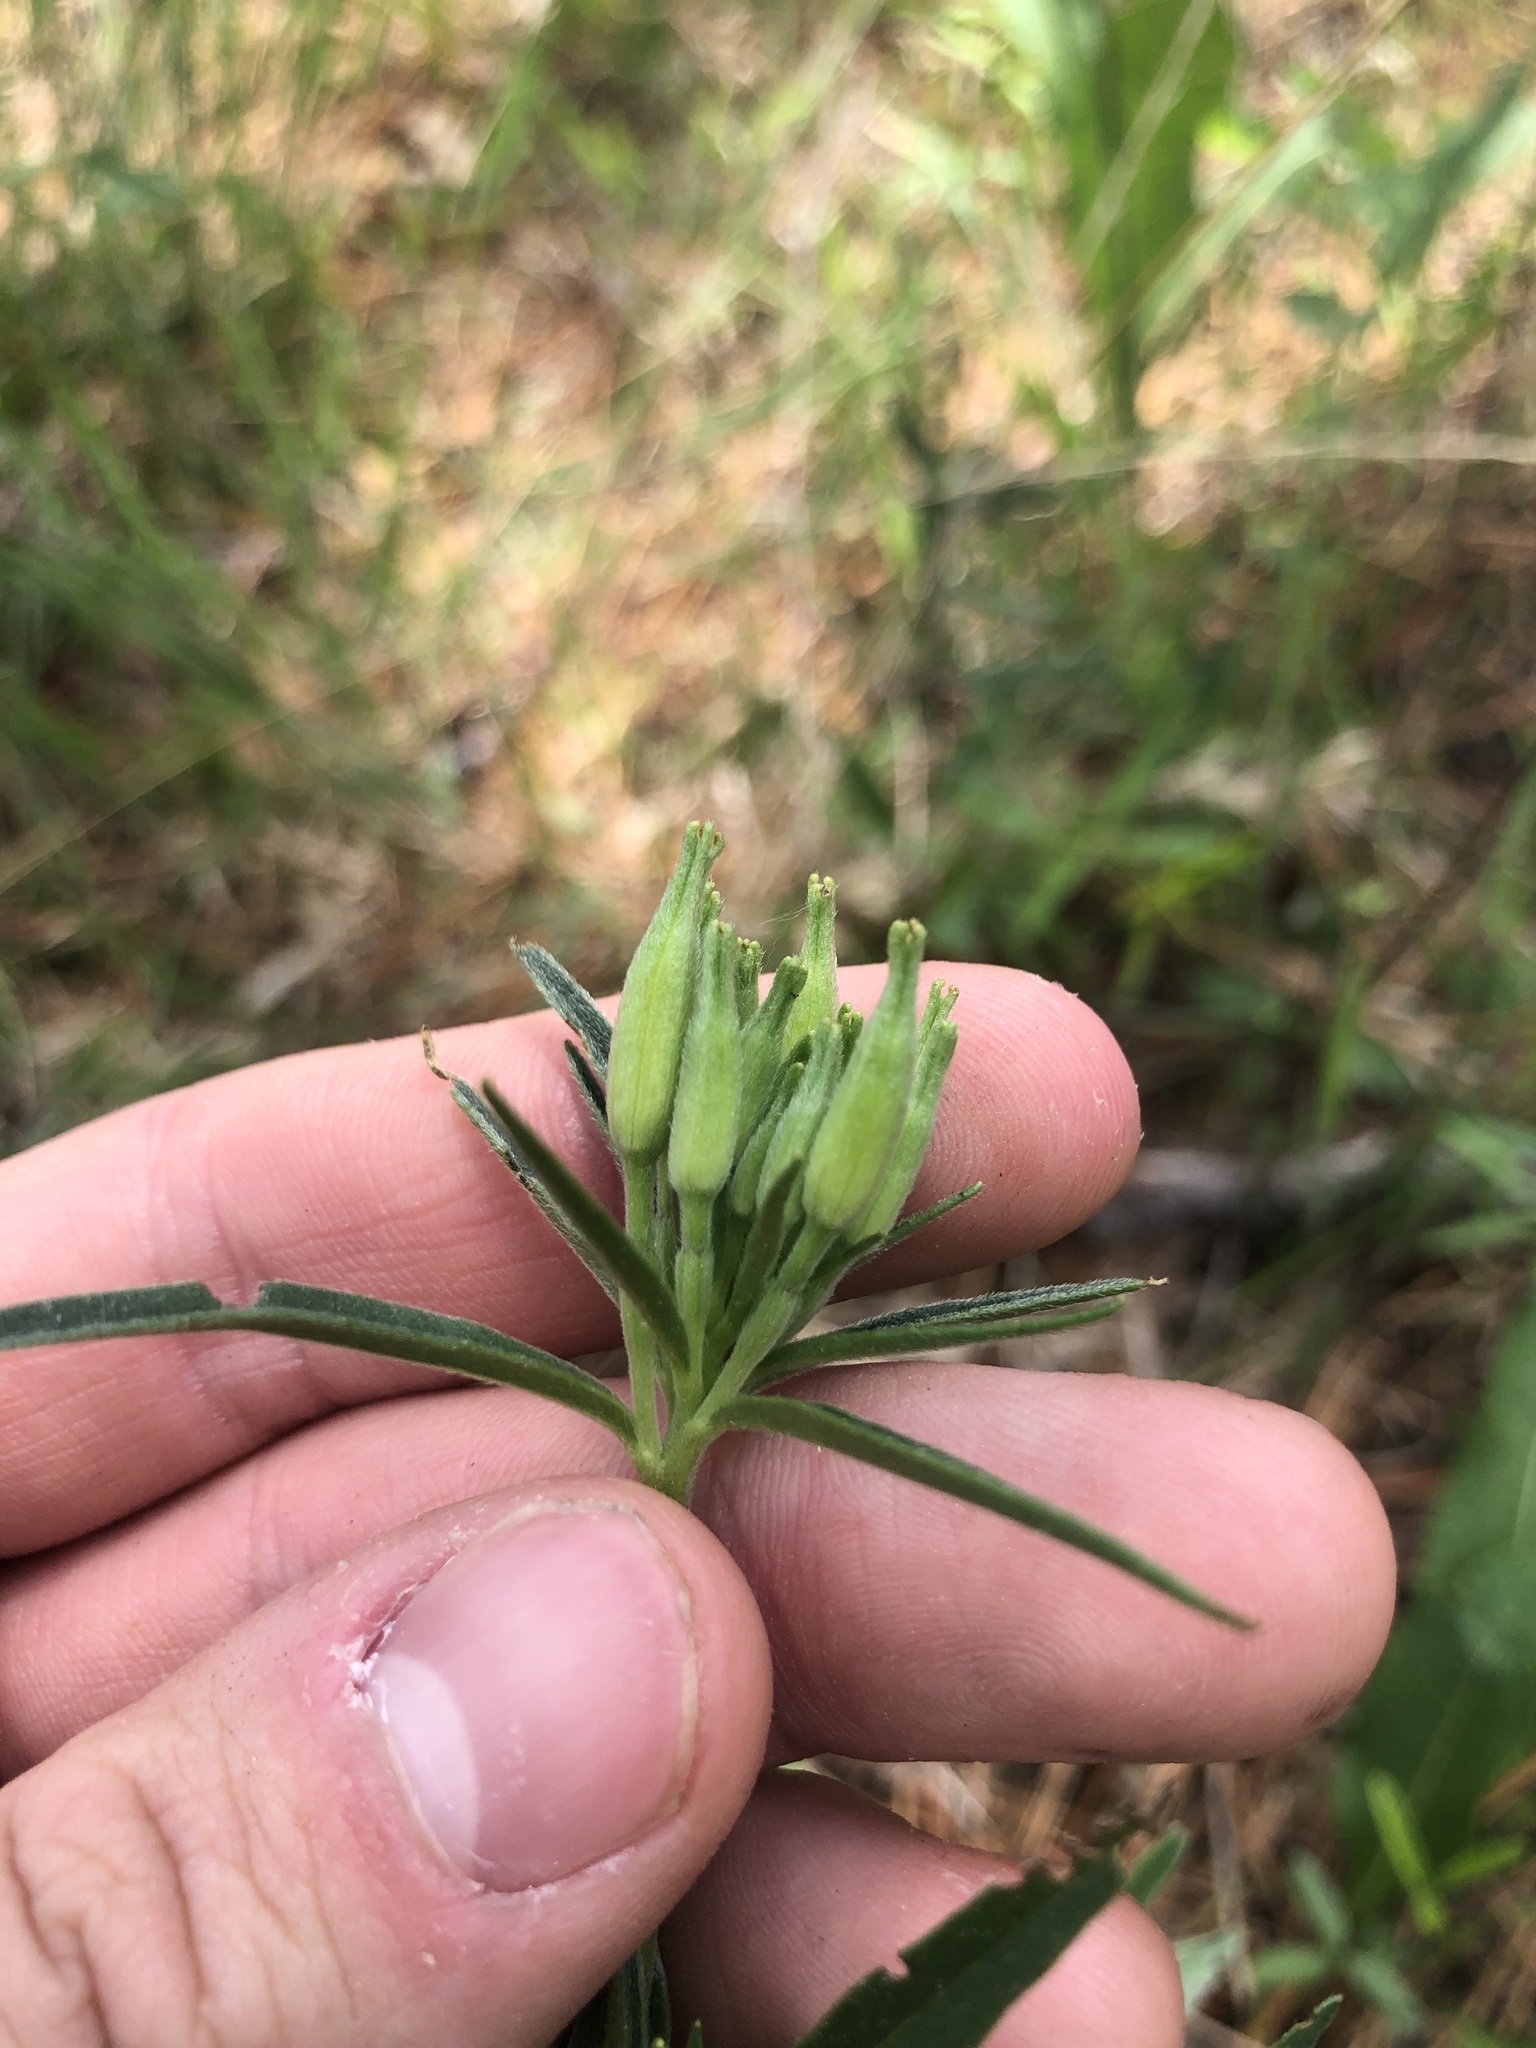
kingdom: Plantae
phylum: Tracheophyta
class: Magnoliopsida
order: Myrtales
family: Onagraceae
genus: Oenothera
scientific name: Oenothera fruticosa
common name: Southern sundrops
